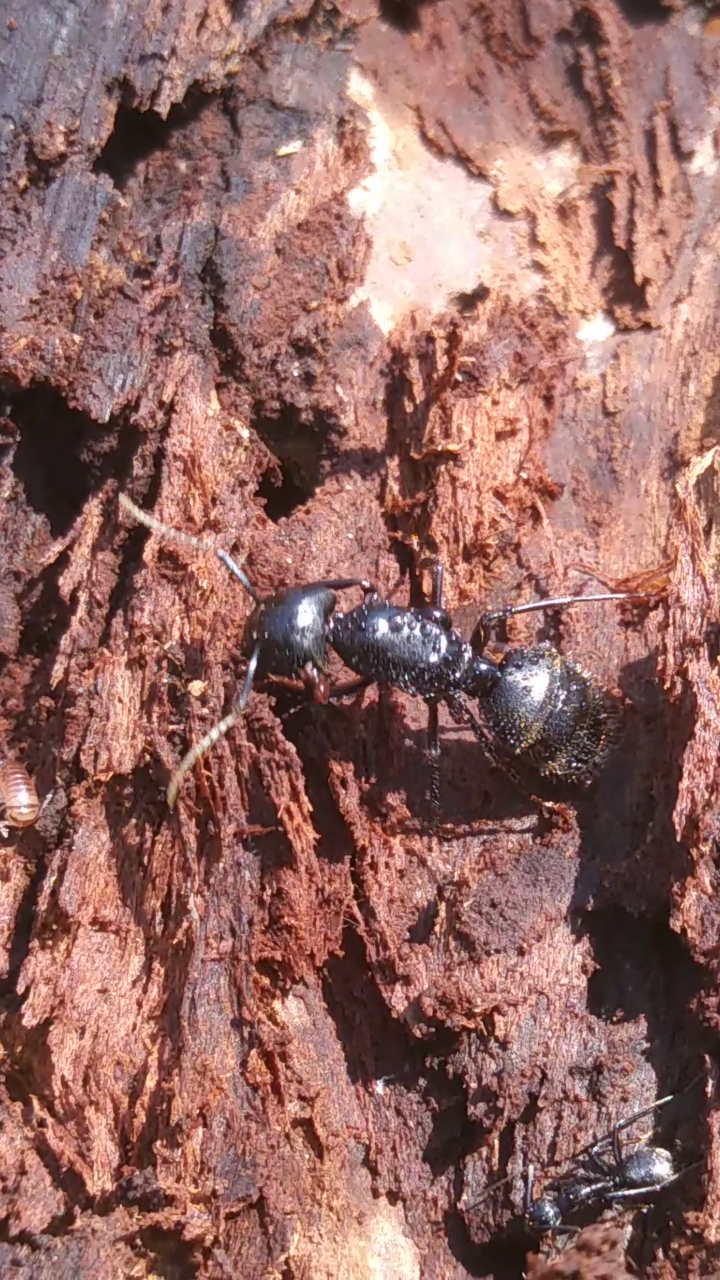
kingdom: Animalia
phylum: Arthropoda
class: Insecta
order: Hymenoptera
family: Formicidae
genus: Camponotus
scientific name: Camponotus pennsylvanicus
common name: Black carpenter ant
